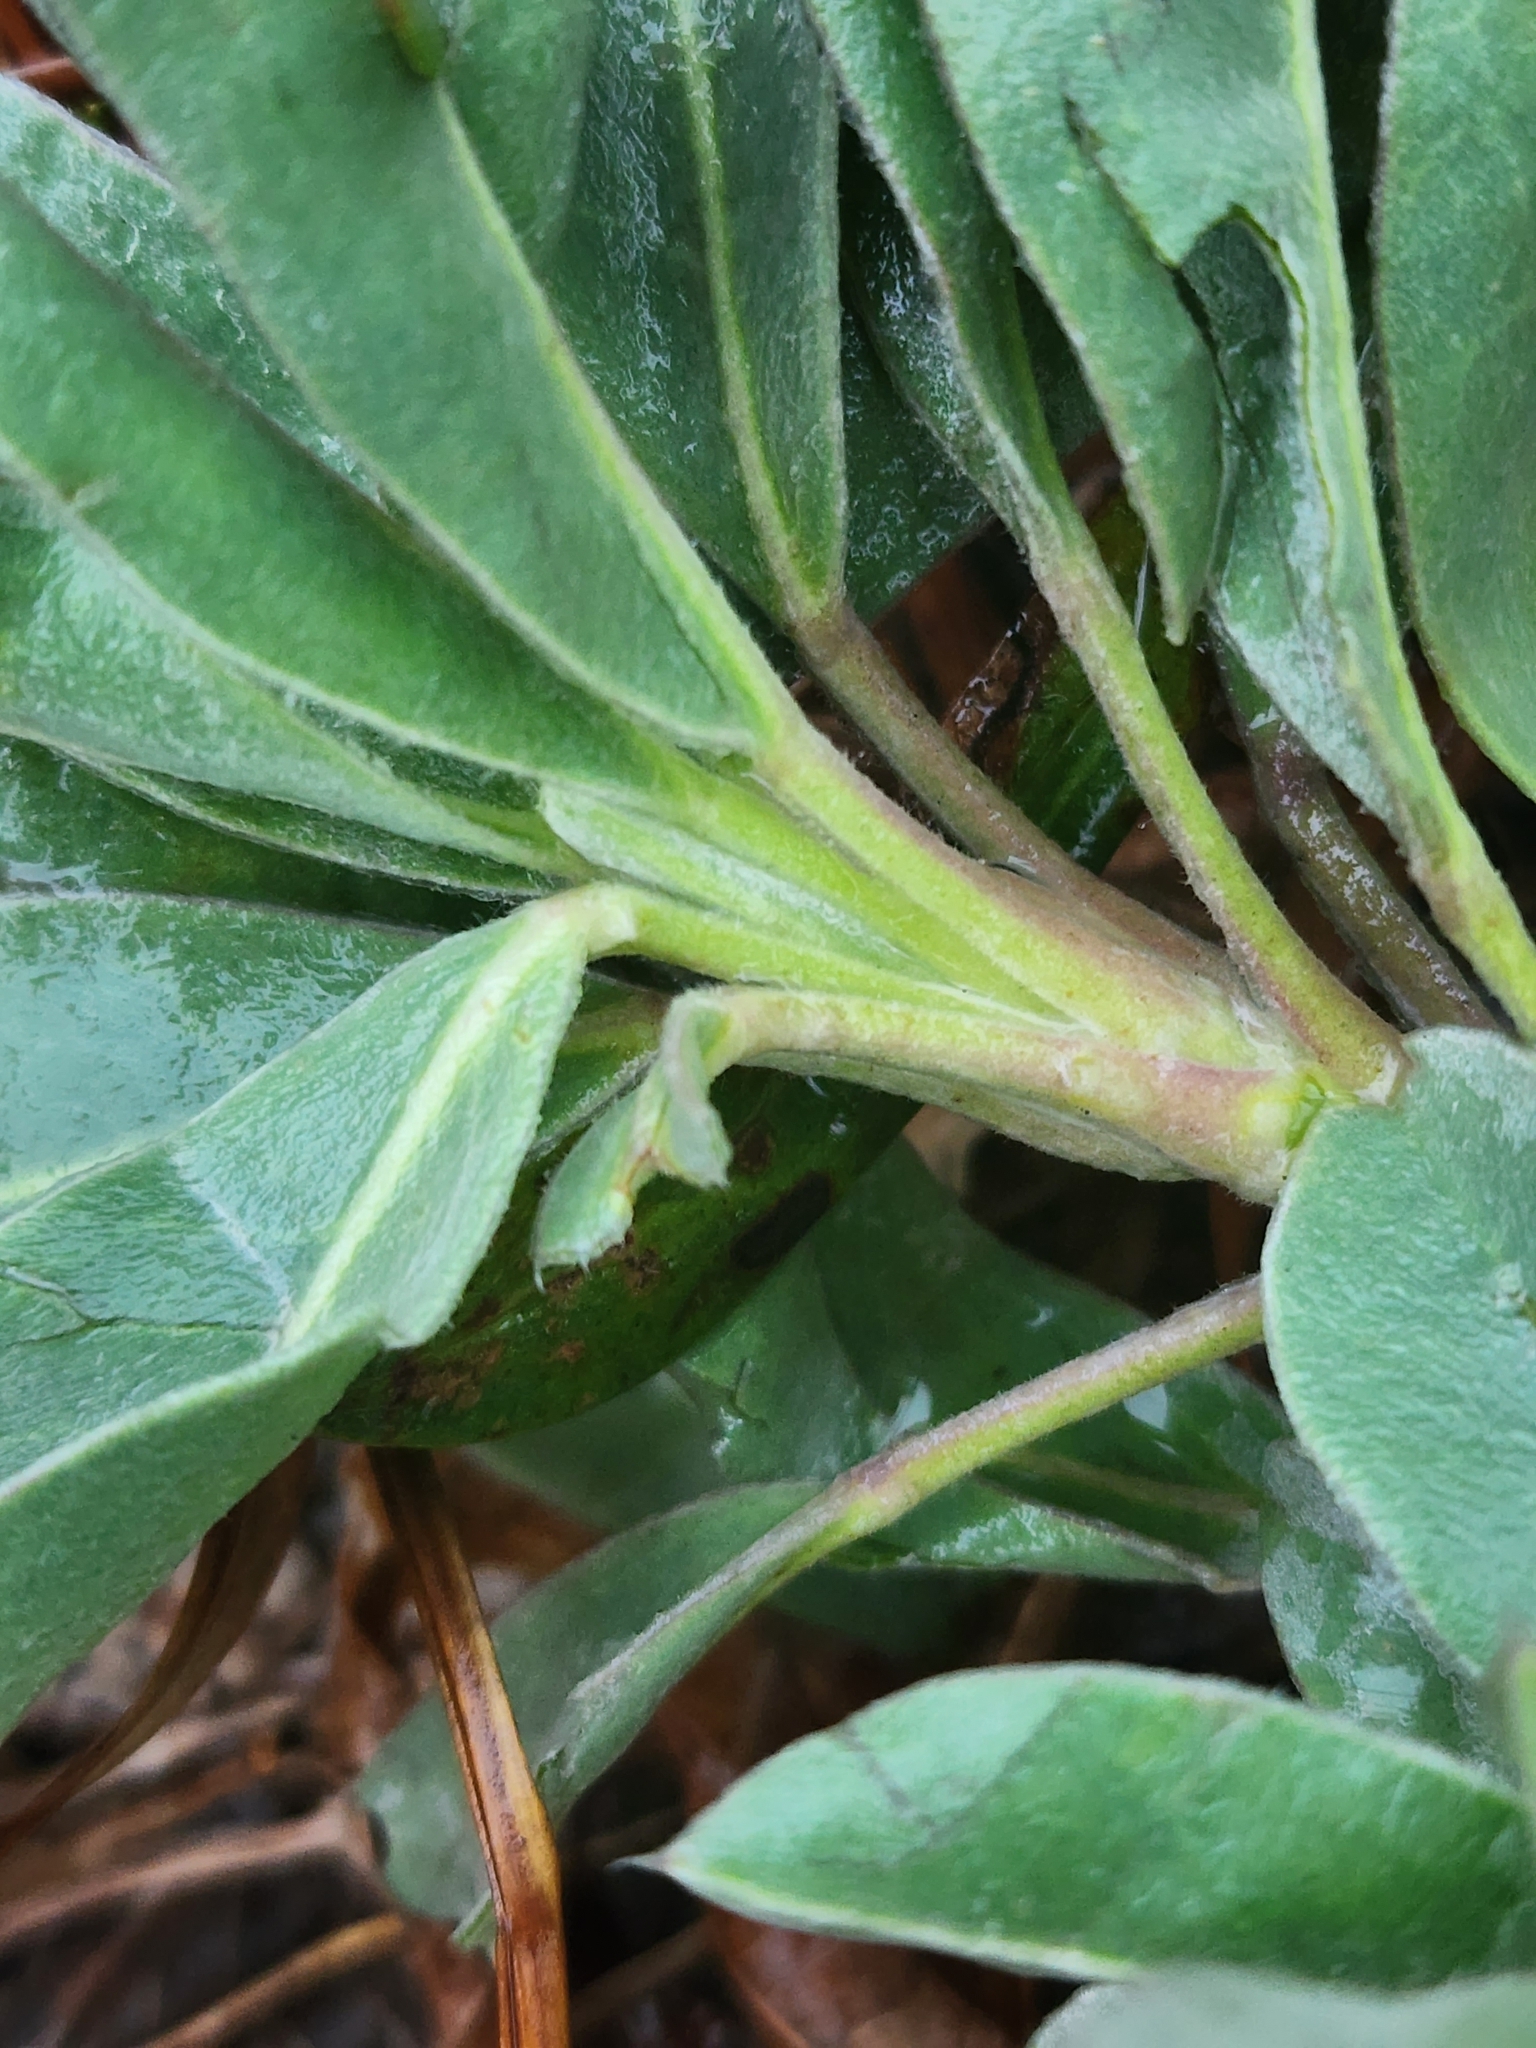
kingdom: Plantae
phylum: Tracheophyta
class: Magnoliopsida
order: Fabales
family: Fabaceae
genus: Lupinus
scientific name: Lupinus westianus
